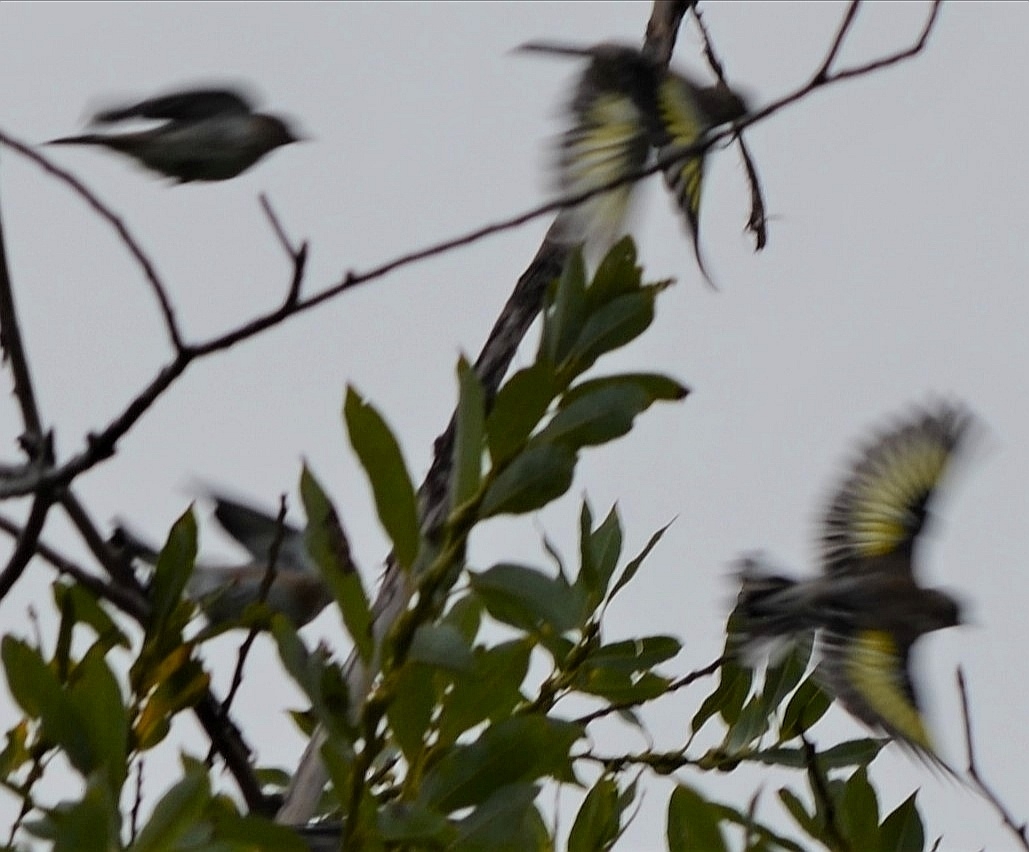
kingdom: Animalia
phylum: Chordata
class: Aves
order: Passeriformes
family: Fringillidae
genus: Carduelis
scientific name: Carduelis carduelis
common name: European goldfinch
